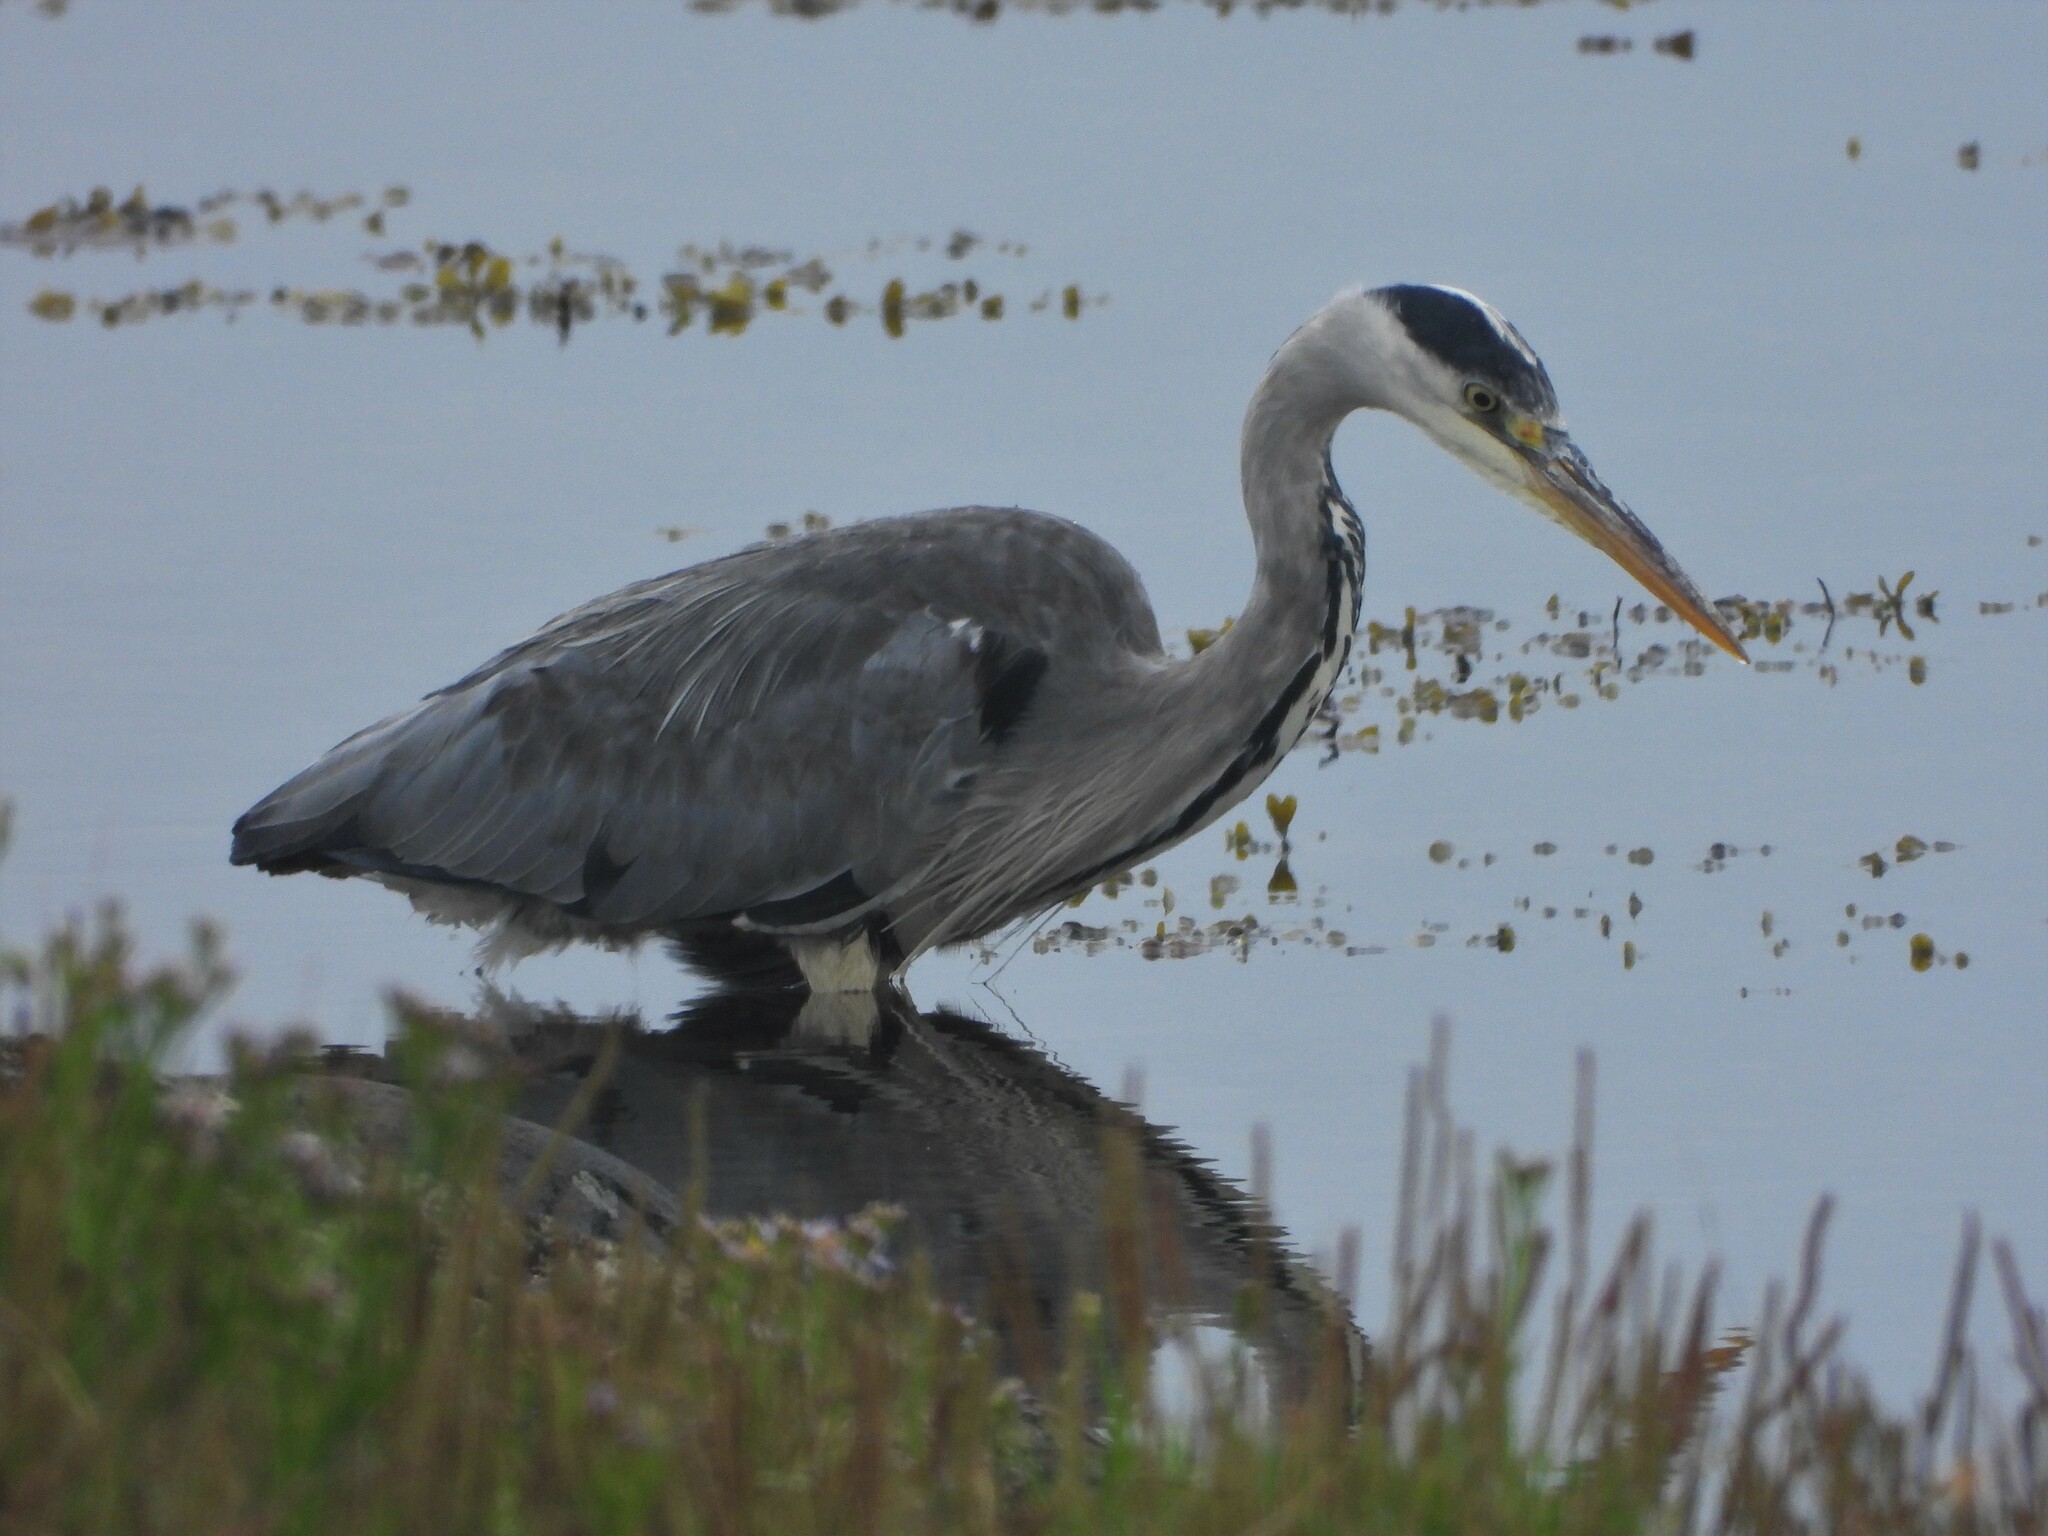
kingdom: Animalia
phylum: Chordata
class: Aves
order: Pelecaniformes
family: Ardeidae
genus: Ardea
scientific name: Ardea cinerea
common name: Grey heron
